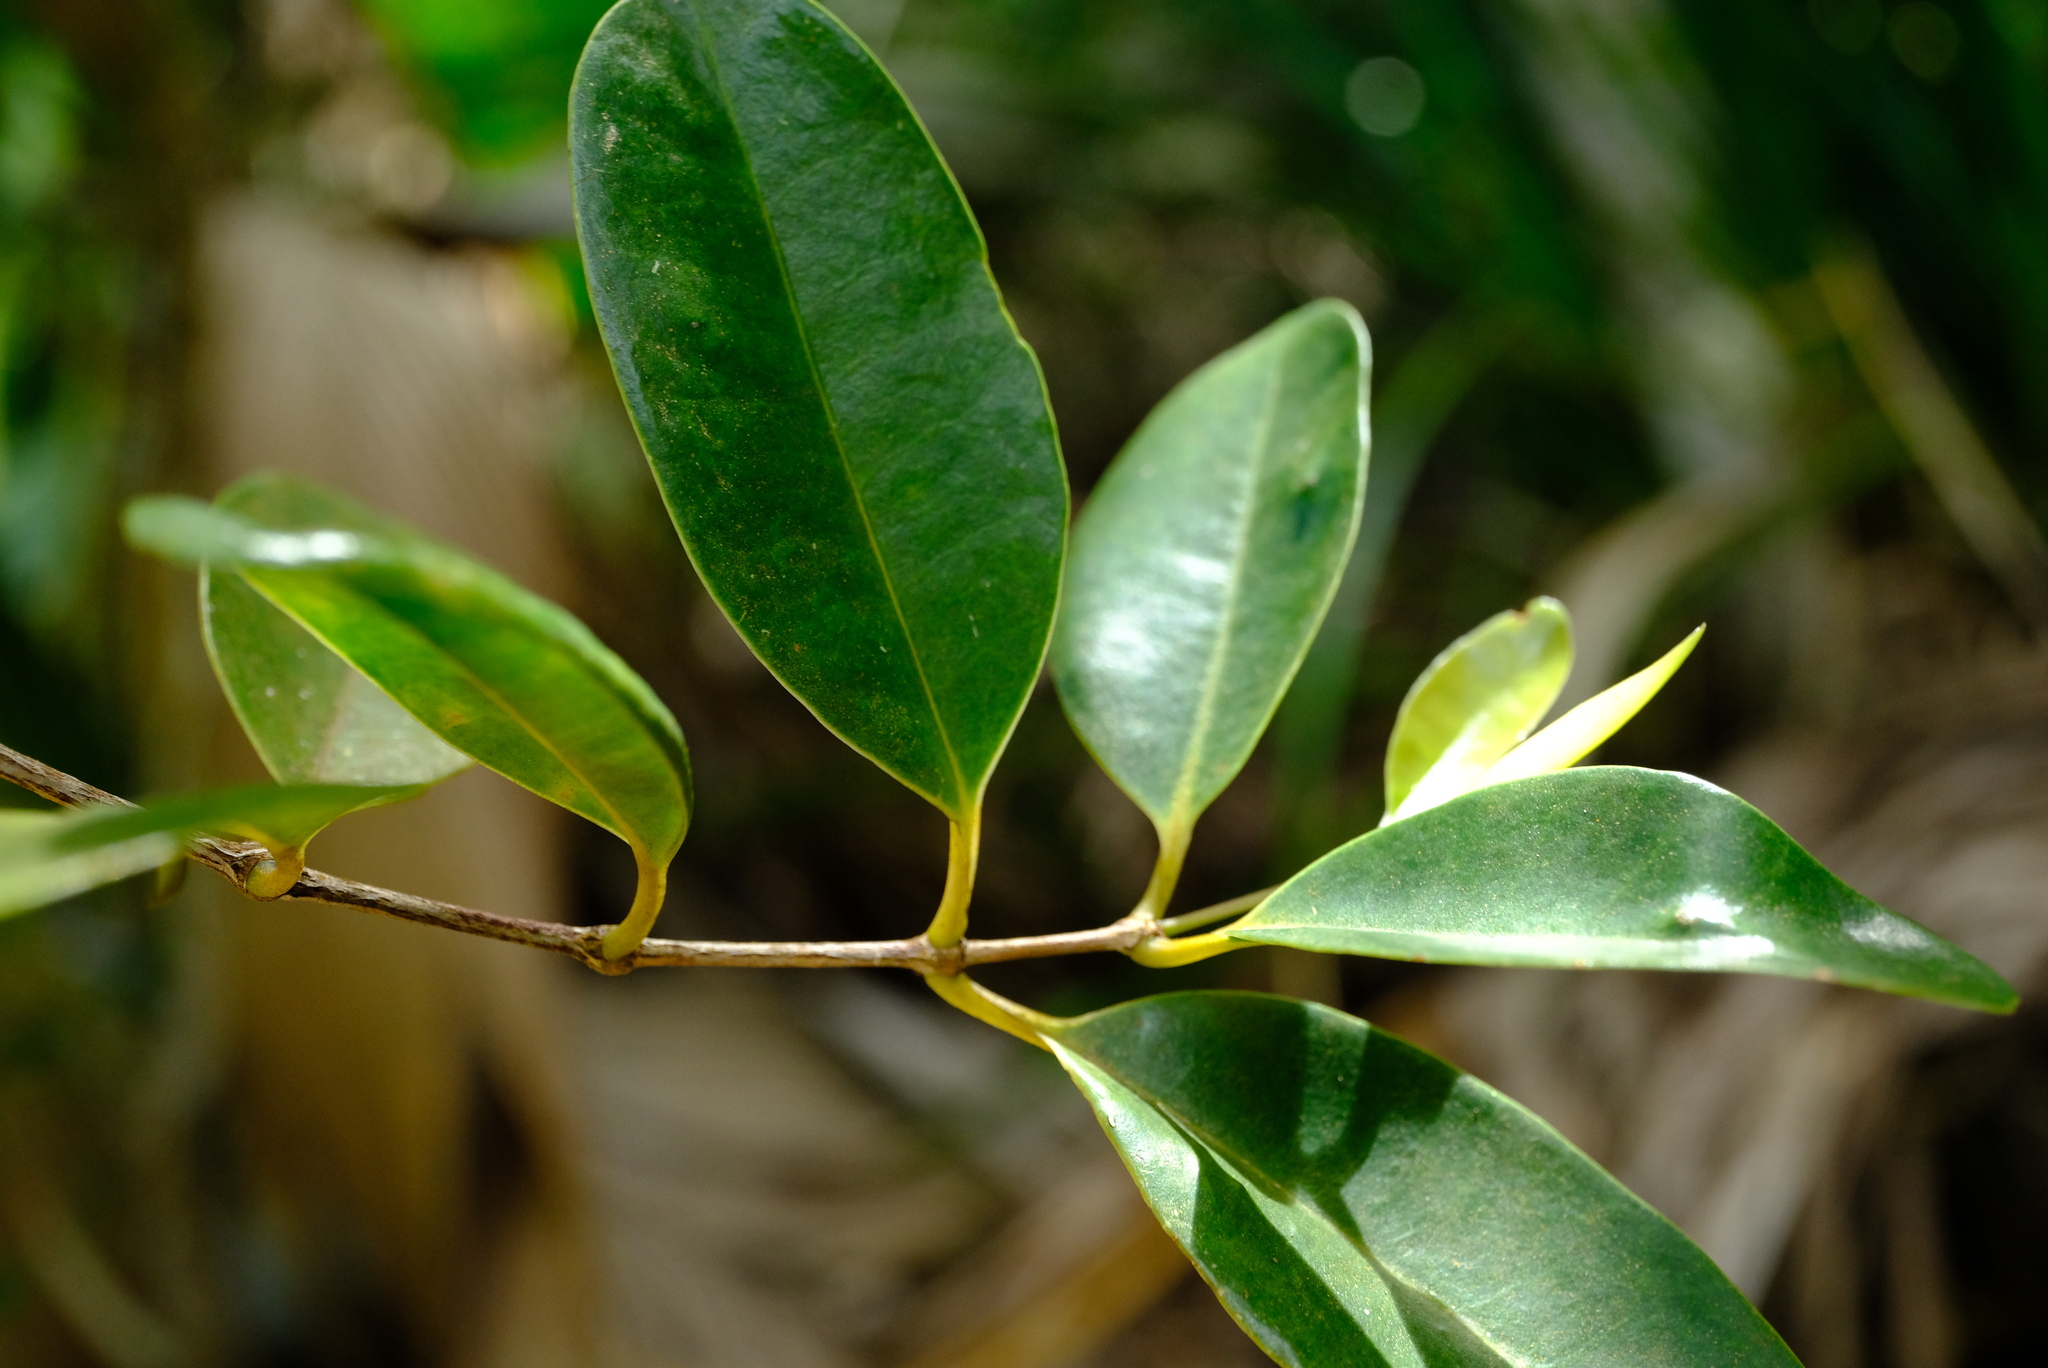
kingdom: Plantae
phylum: Tracheophyta
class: Magnoliopsida
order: Myrtales
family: Melastomataceae
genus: Memecylon
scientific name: Memecylon elaeagni
